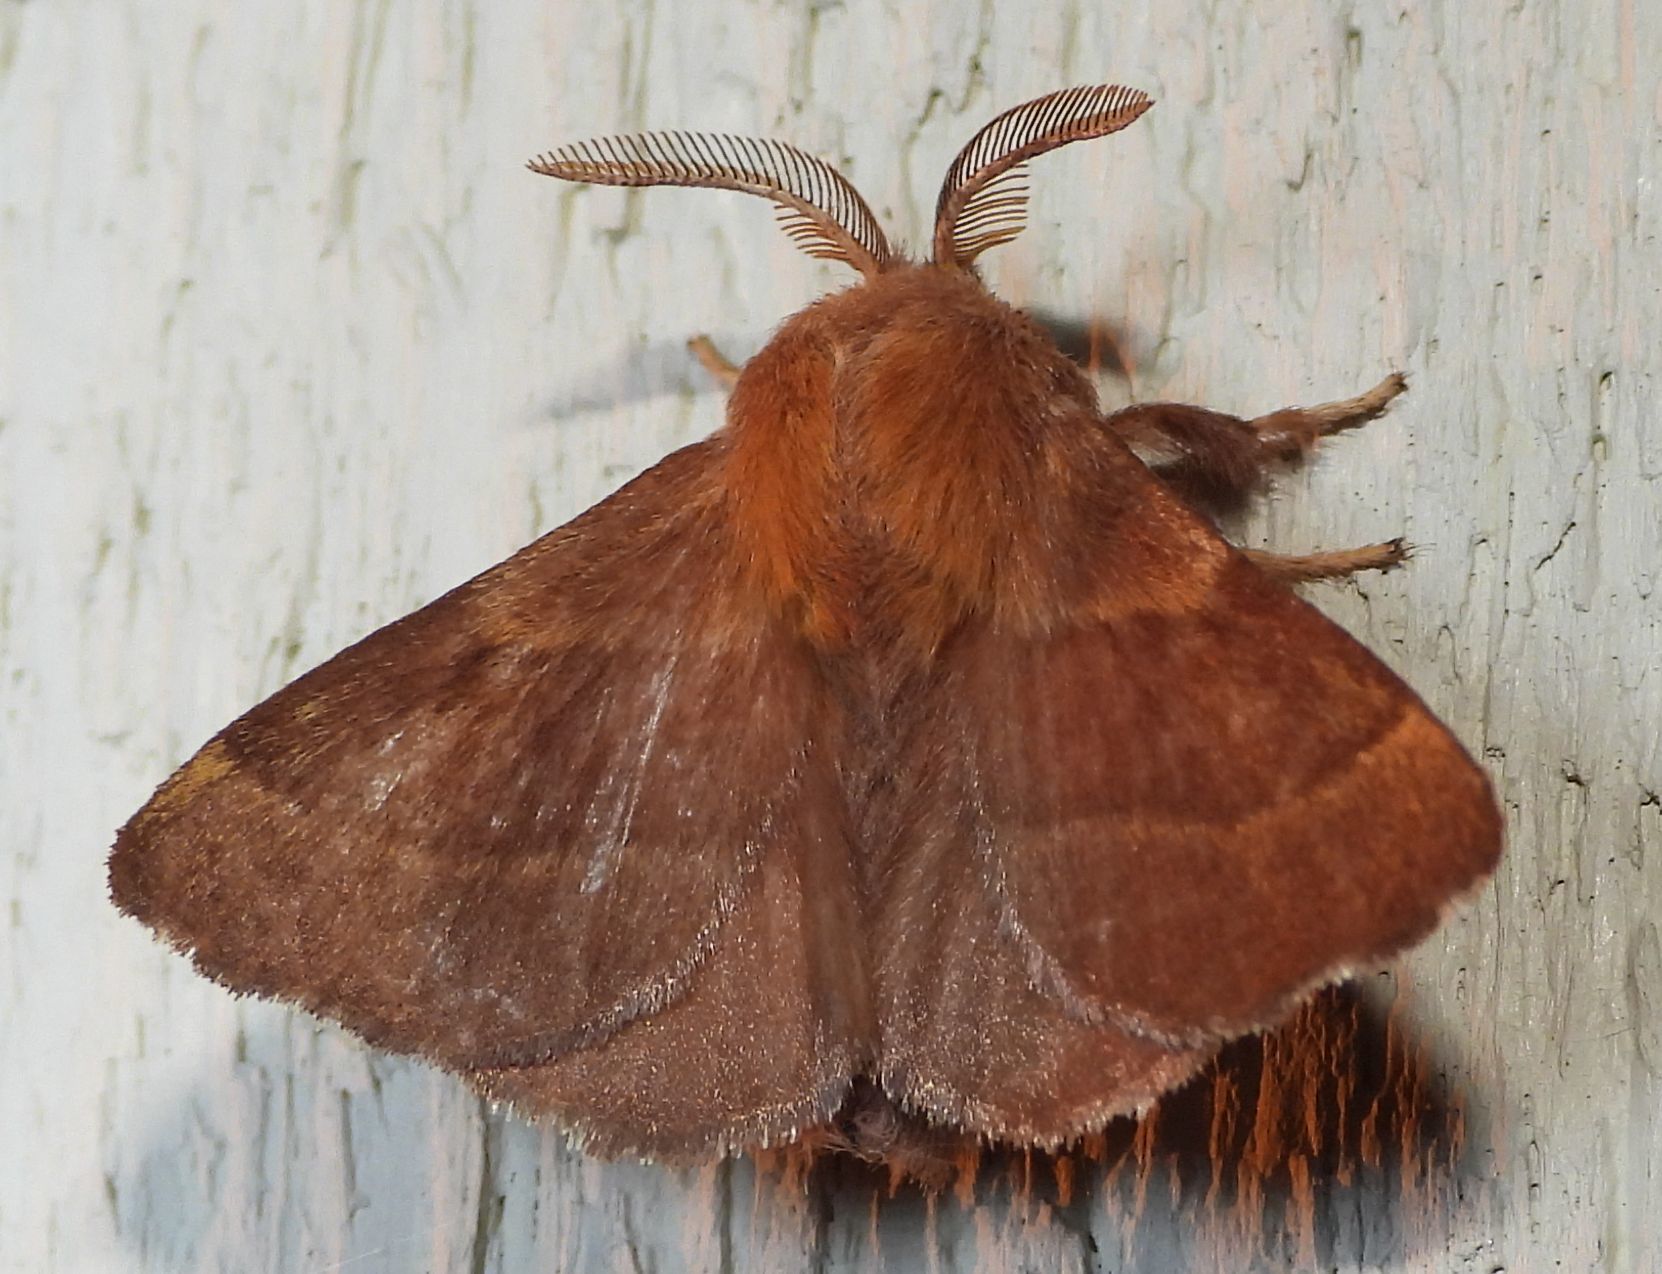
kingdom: Animalia
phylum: Arthropoda
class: Insecta
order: Lepidoptera
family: Lasiocampidae
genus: Malacosoma
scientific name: Malacosoma disstria
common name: Forest tent caterpillar
